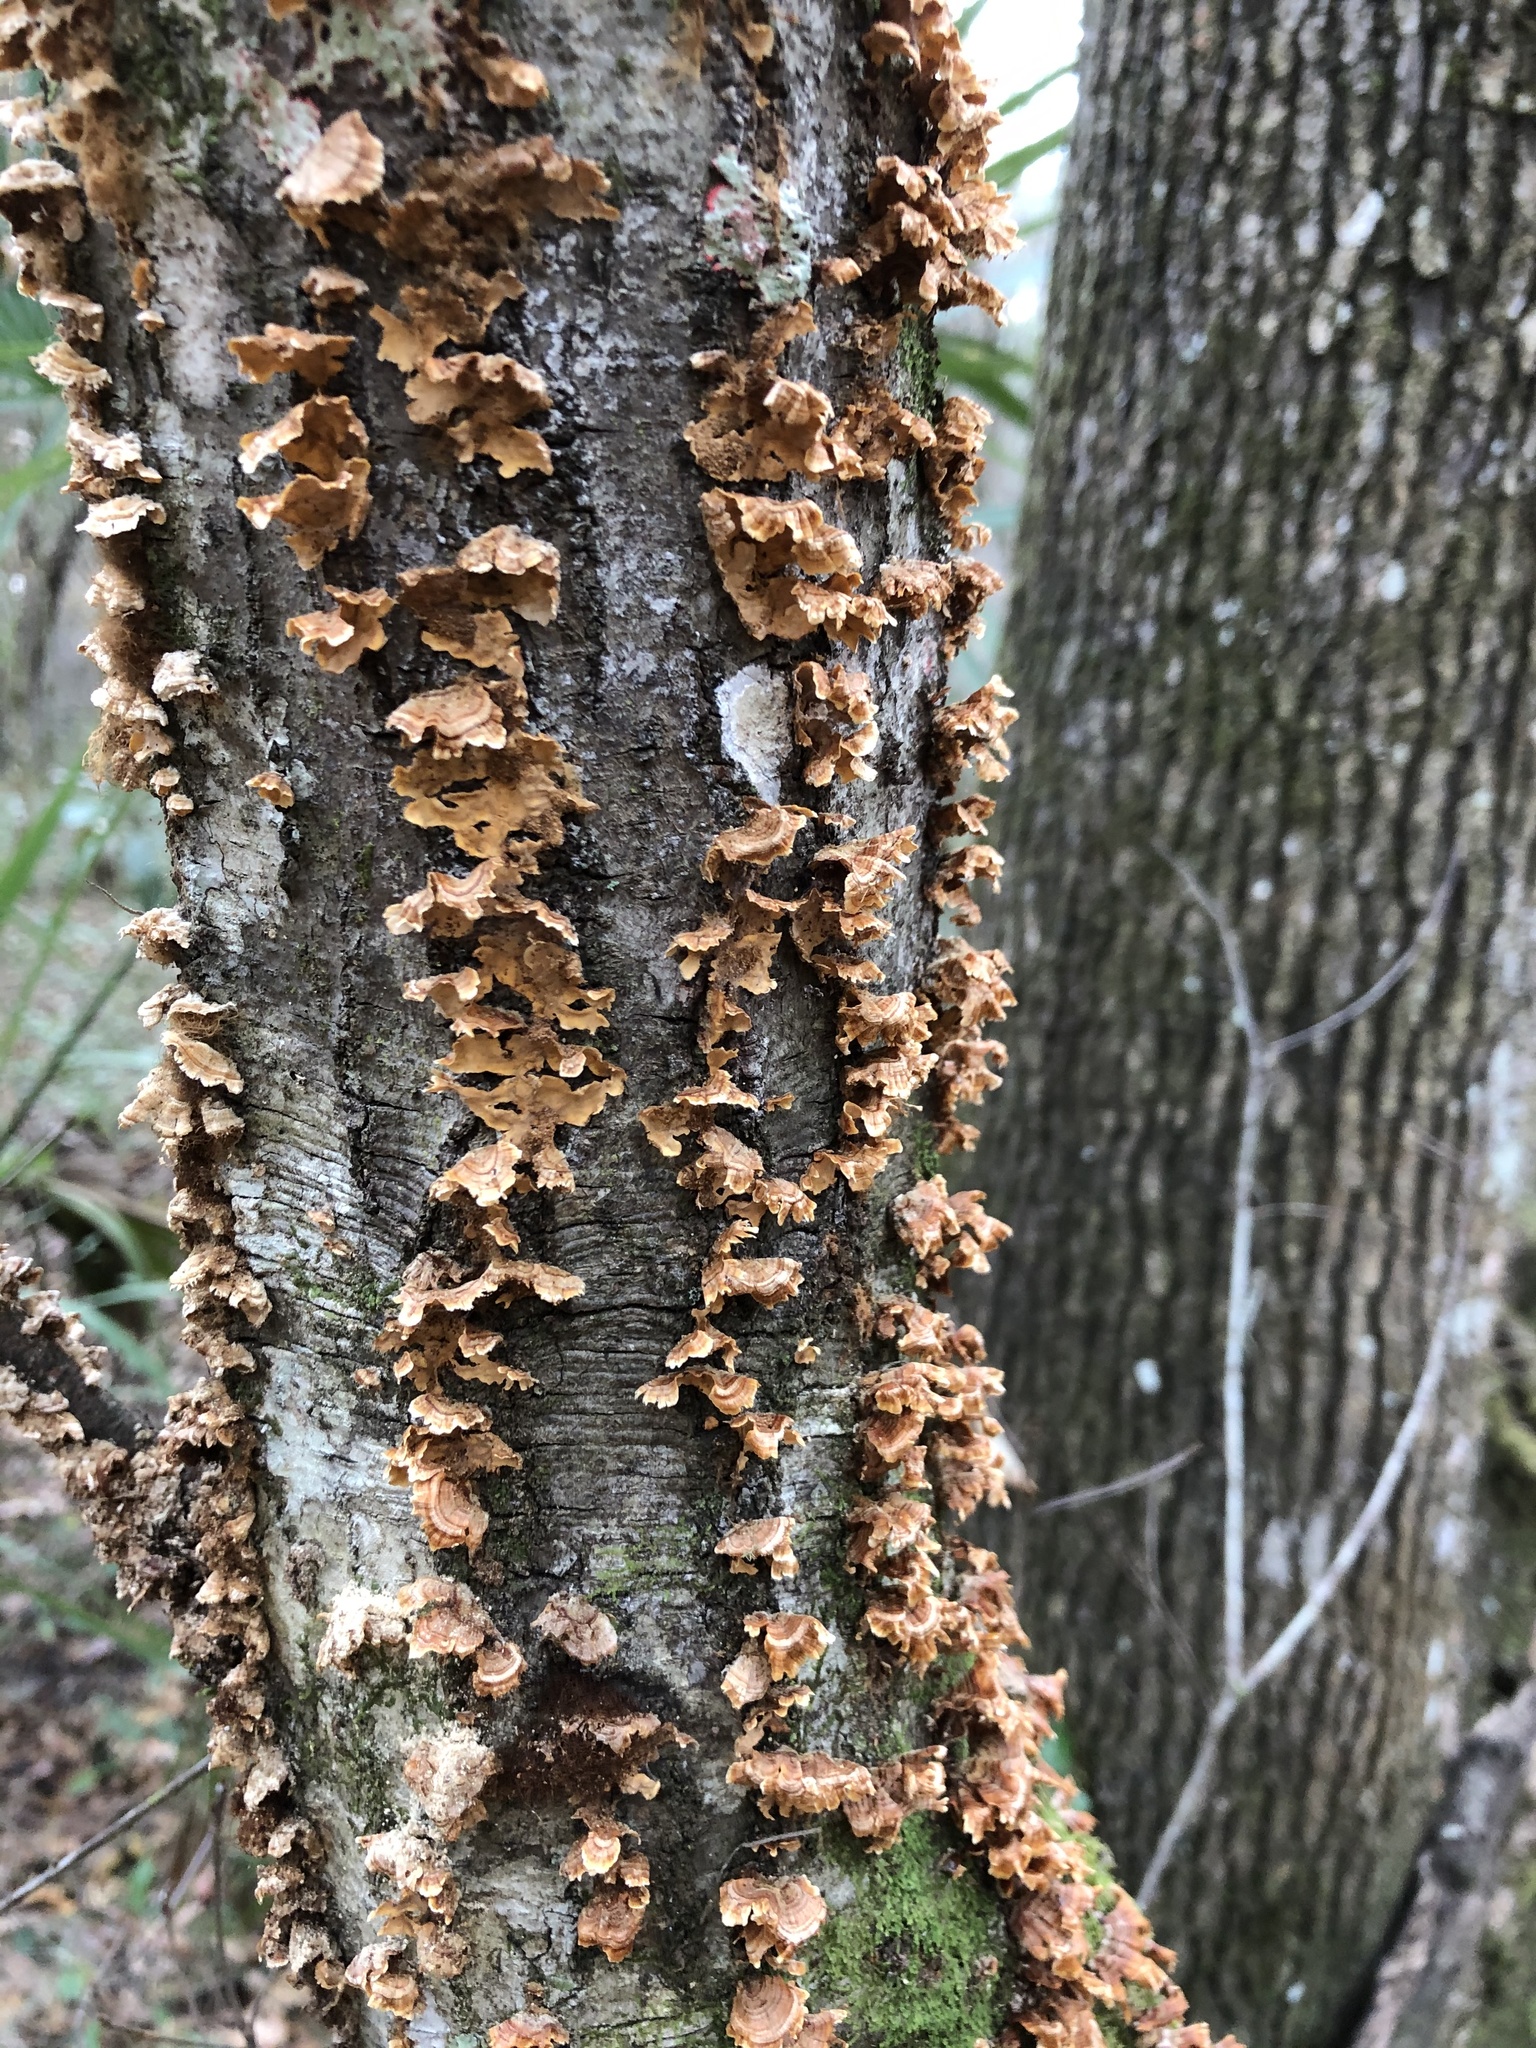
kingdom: Fungi
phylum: Basidiomycota
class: Agaricomycetes
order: Russulales
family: Stereaceae
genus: Stereum
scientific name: Stereum complicatum
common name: Crowded parchment
